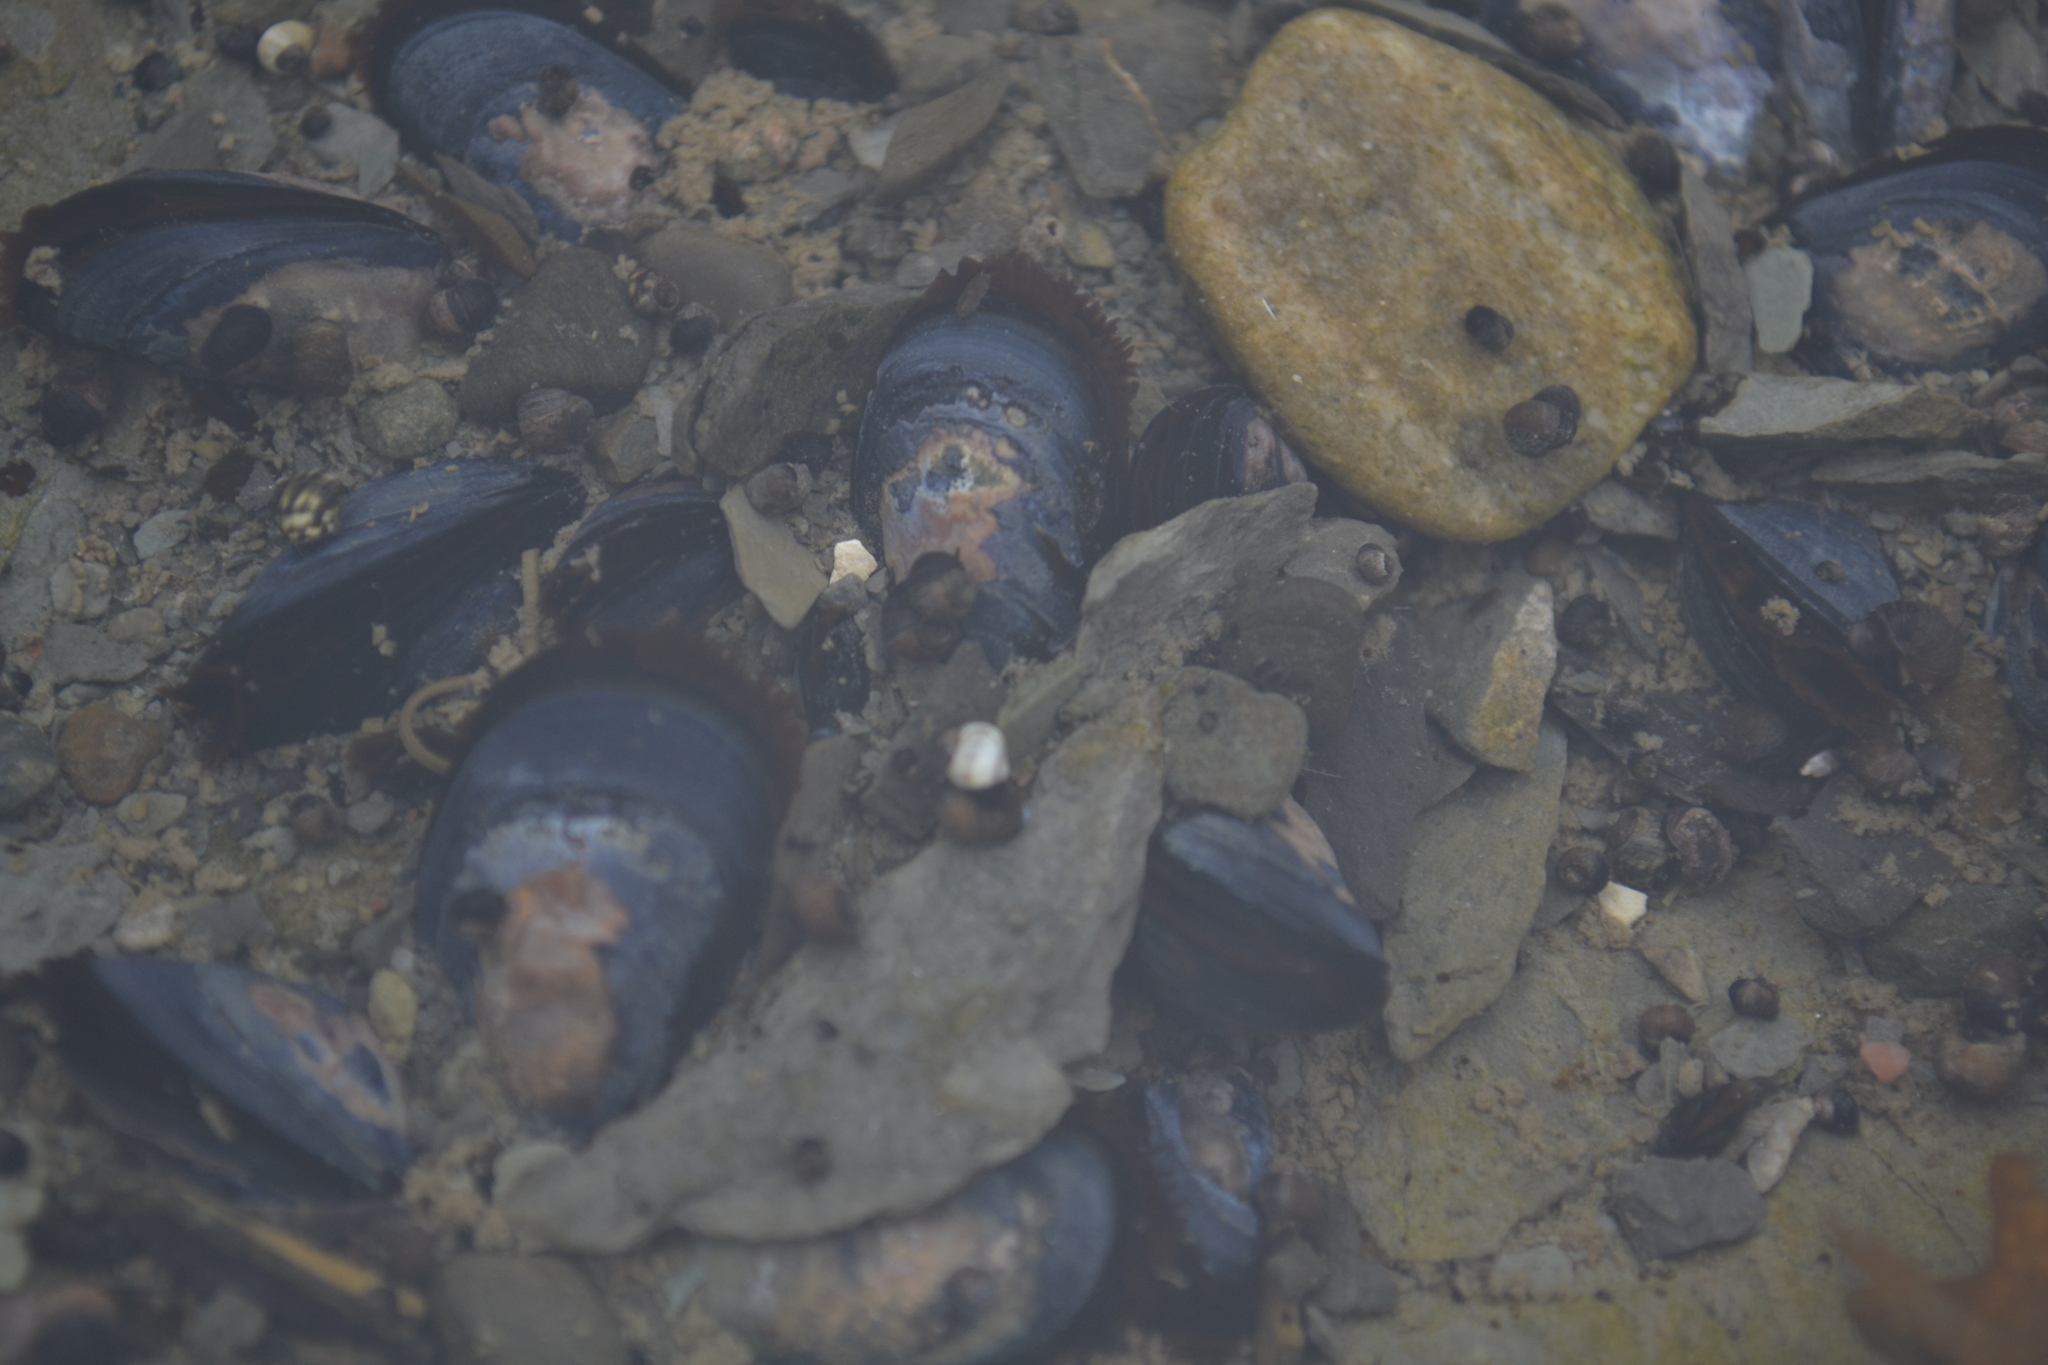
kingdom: Animalia
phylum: Mollusca
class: Bivalvia
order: Mytilida
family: Mytilidae
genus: Mytilus
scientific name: Mytilus
